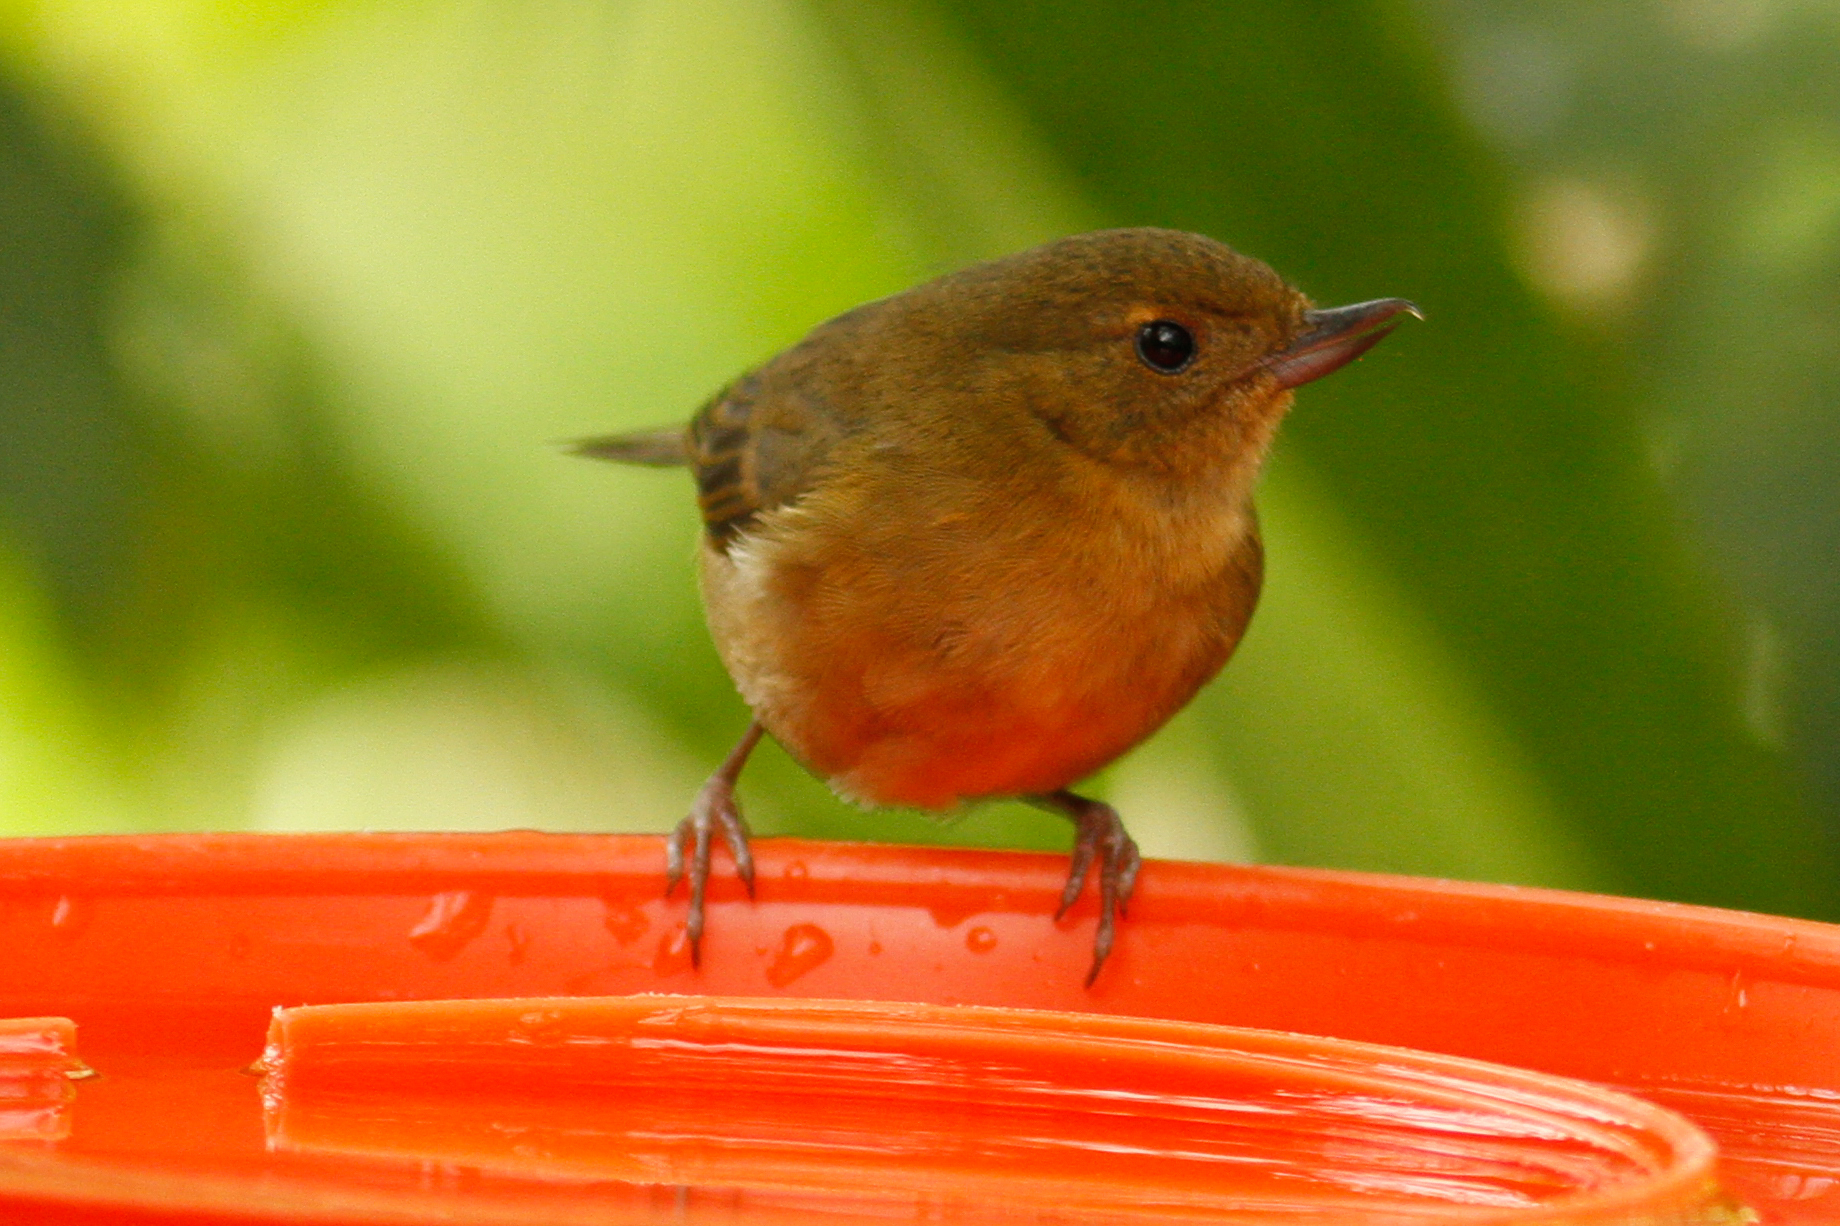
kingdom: Animalia
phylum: Chordata
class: Aves
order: Passeriformes
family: Thraupidae
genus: Diglossa
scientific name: Diglossa albilatera
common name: White-sided flowerpiercer
